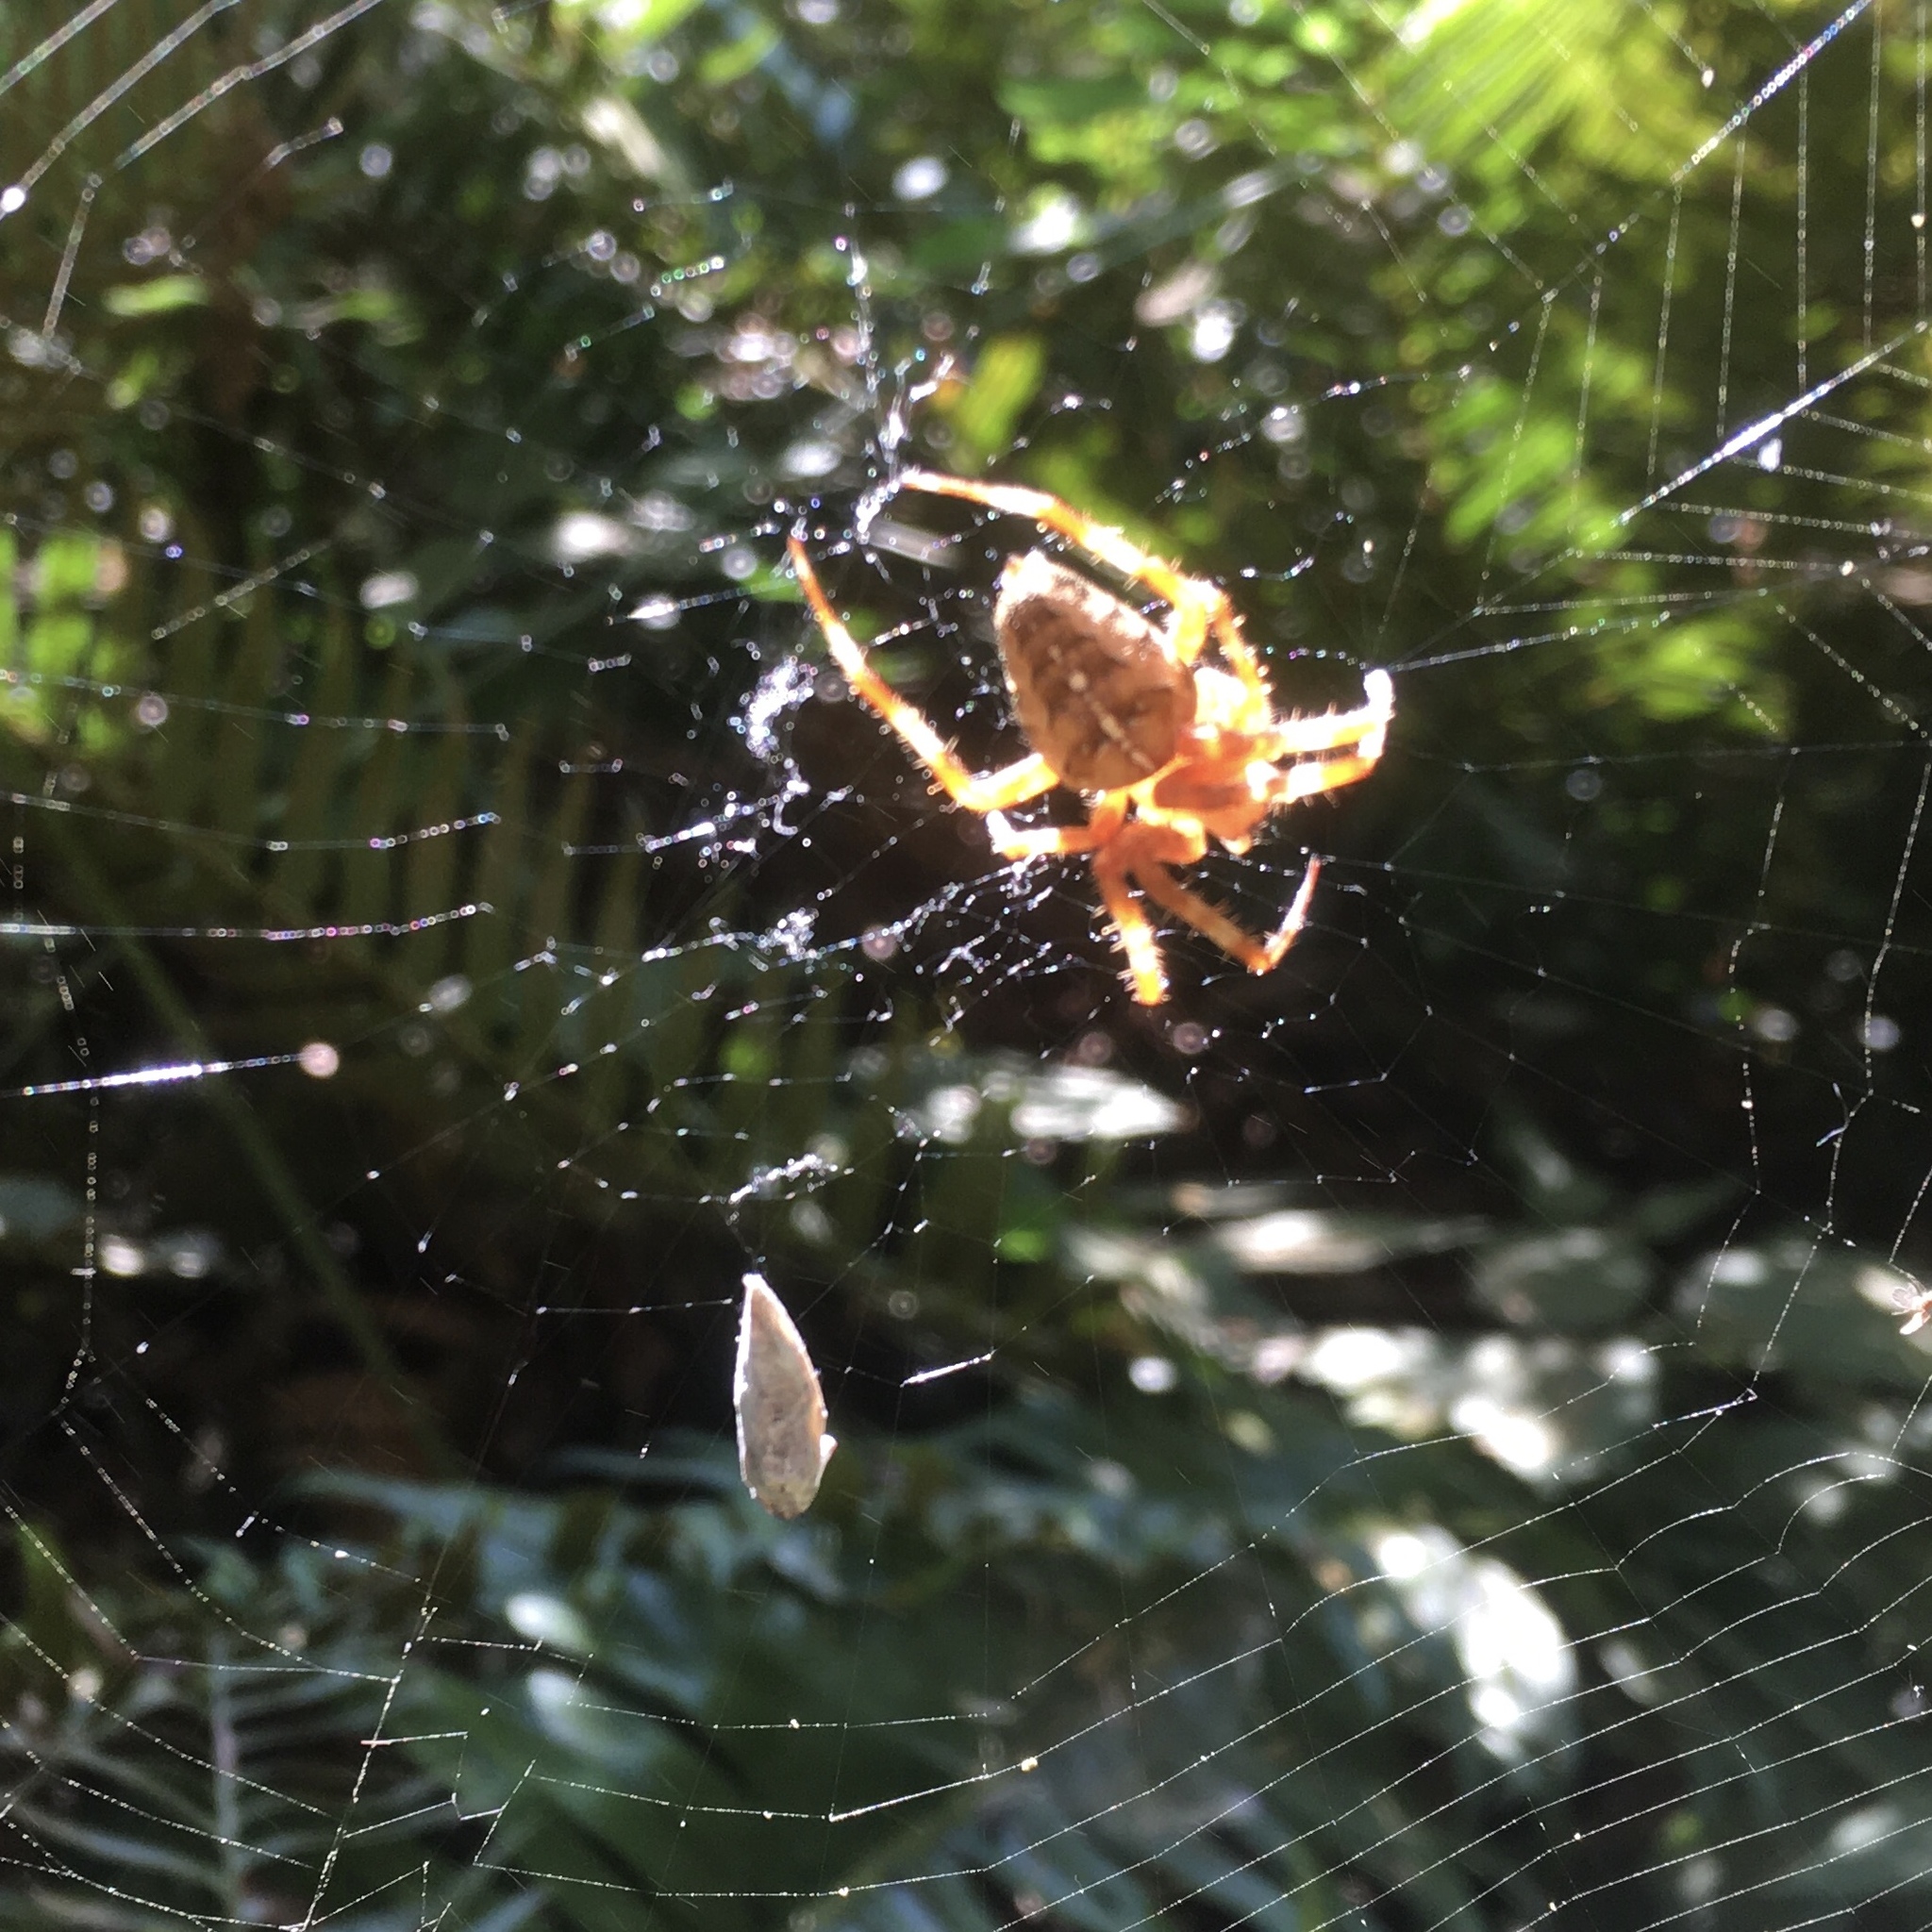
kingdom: Animalia
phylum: Arthropoda
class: Arachnida
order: Araneae
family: Araneidae
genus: Araneus
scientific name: Araneus diadematus
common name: Cross orbweaver
